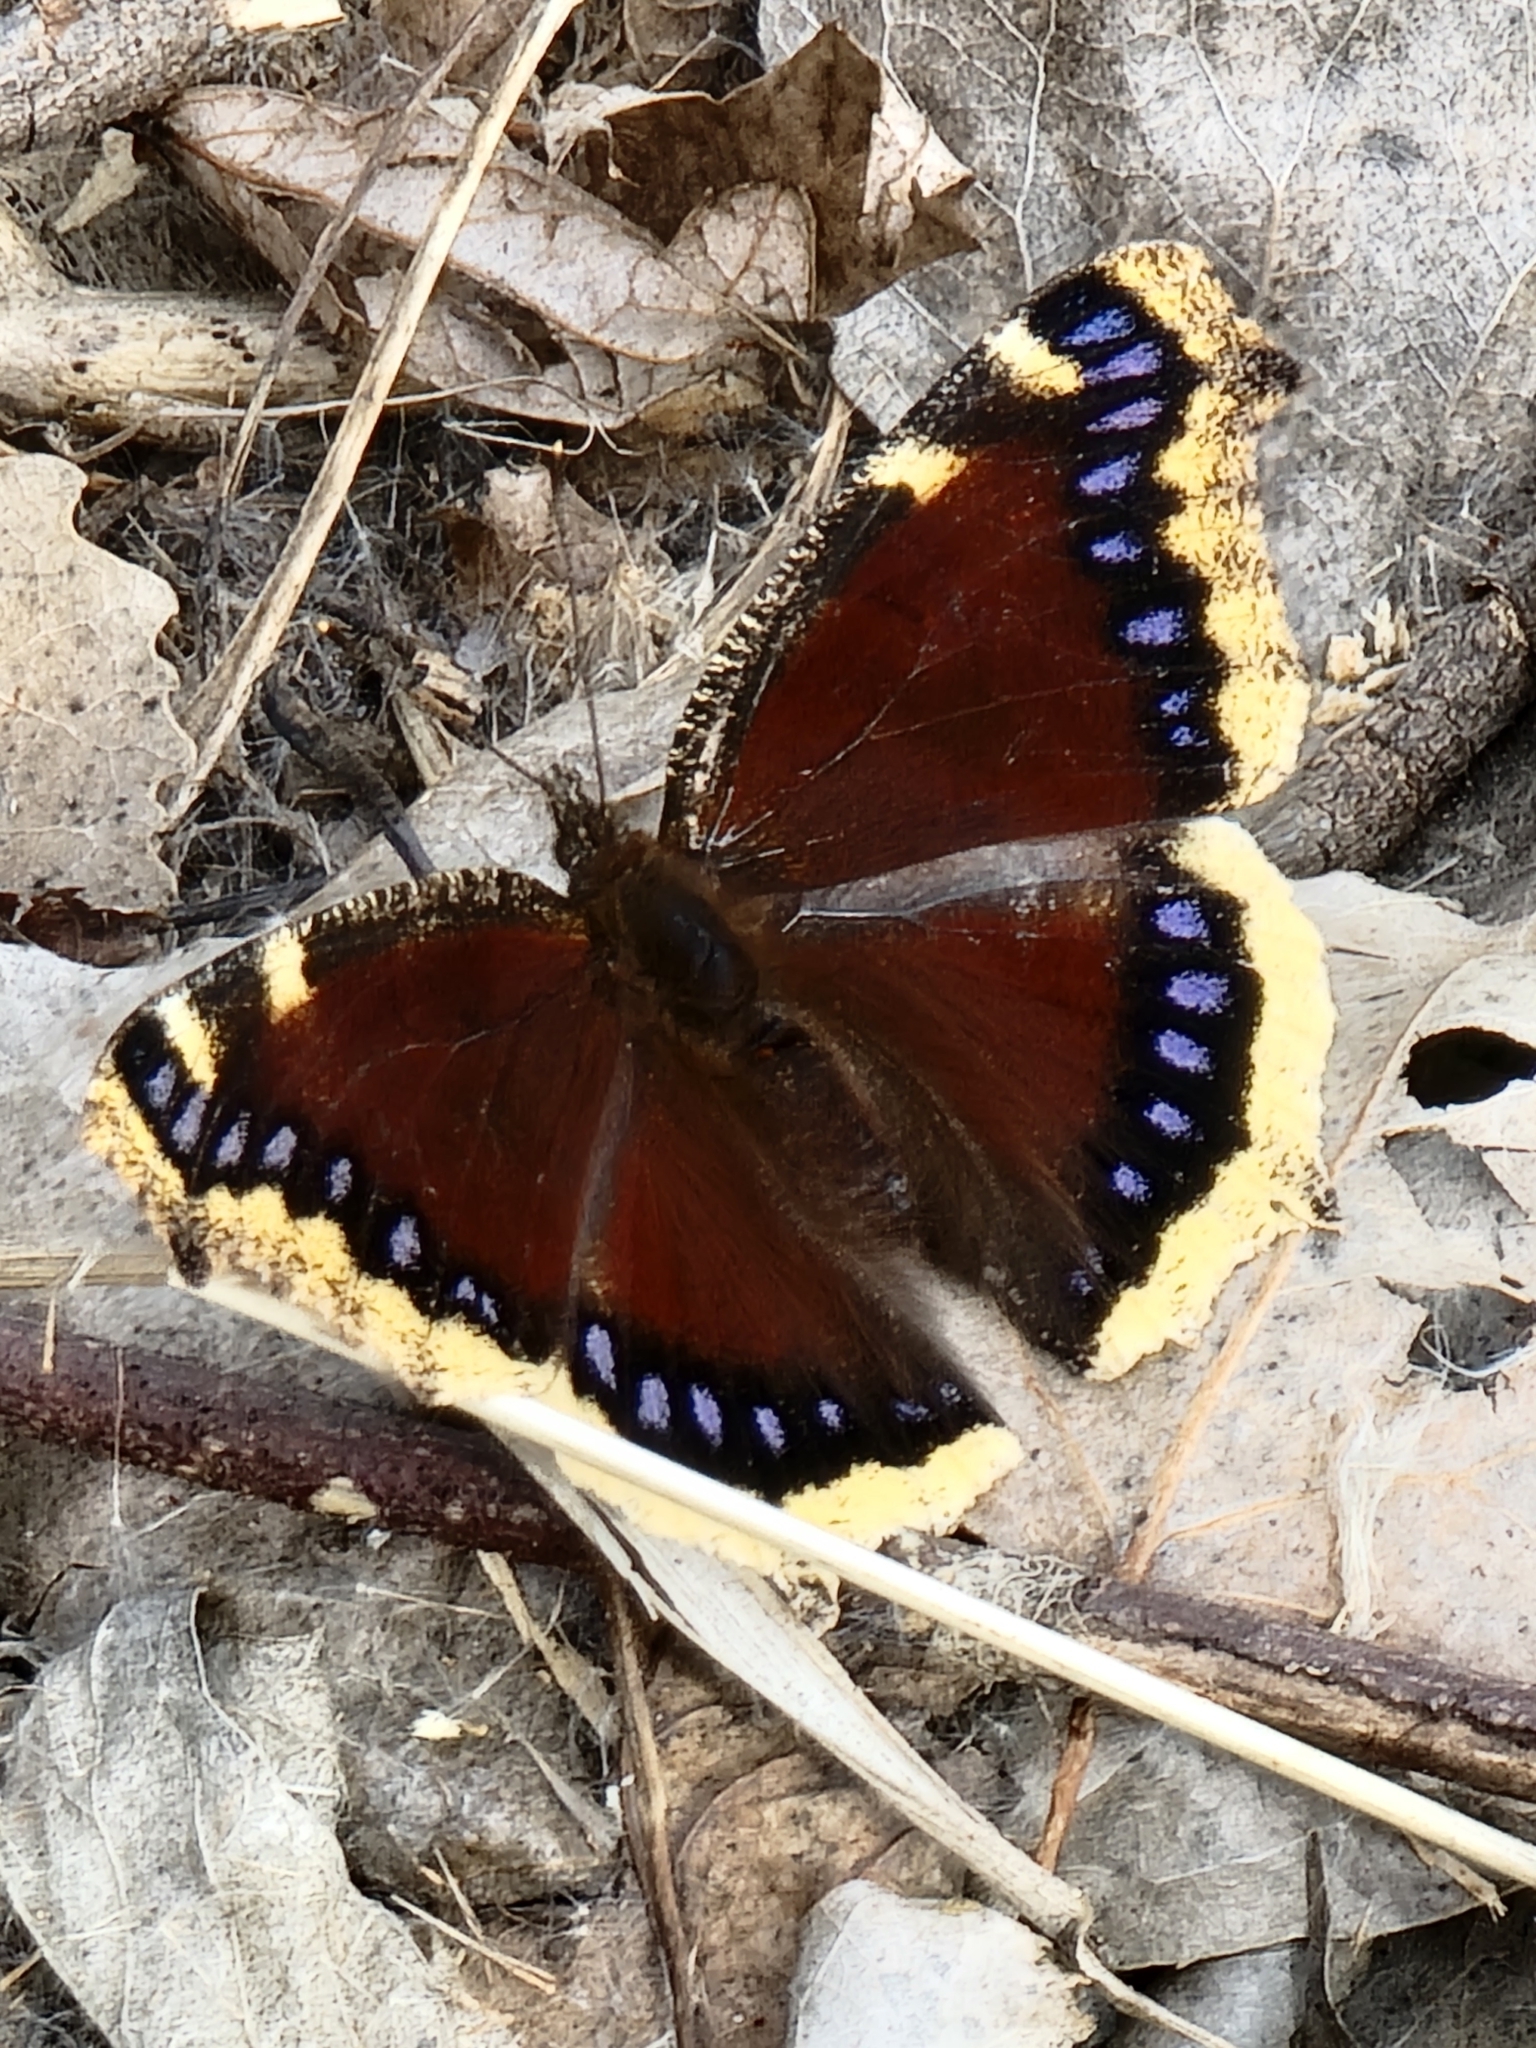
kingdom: Animalia
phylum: Arthropoda
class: Insecta
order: Lepidoptera
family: Nymphalidae
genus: Nymphalis
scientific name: Nymphalis antiopa
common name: Camberwell beauty
